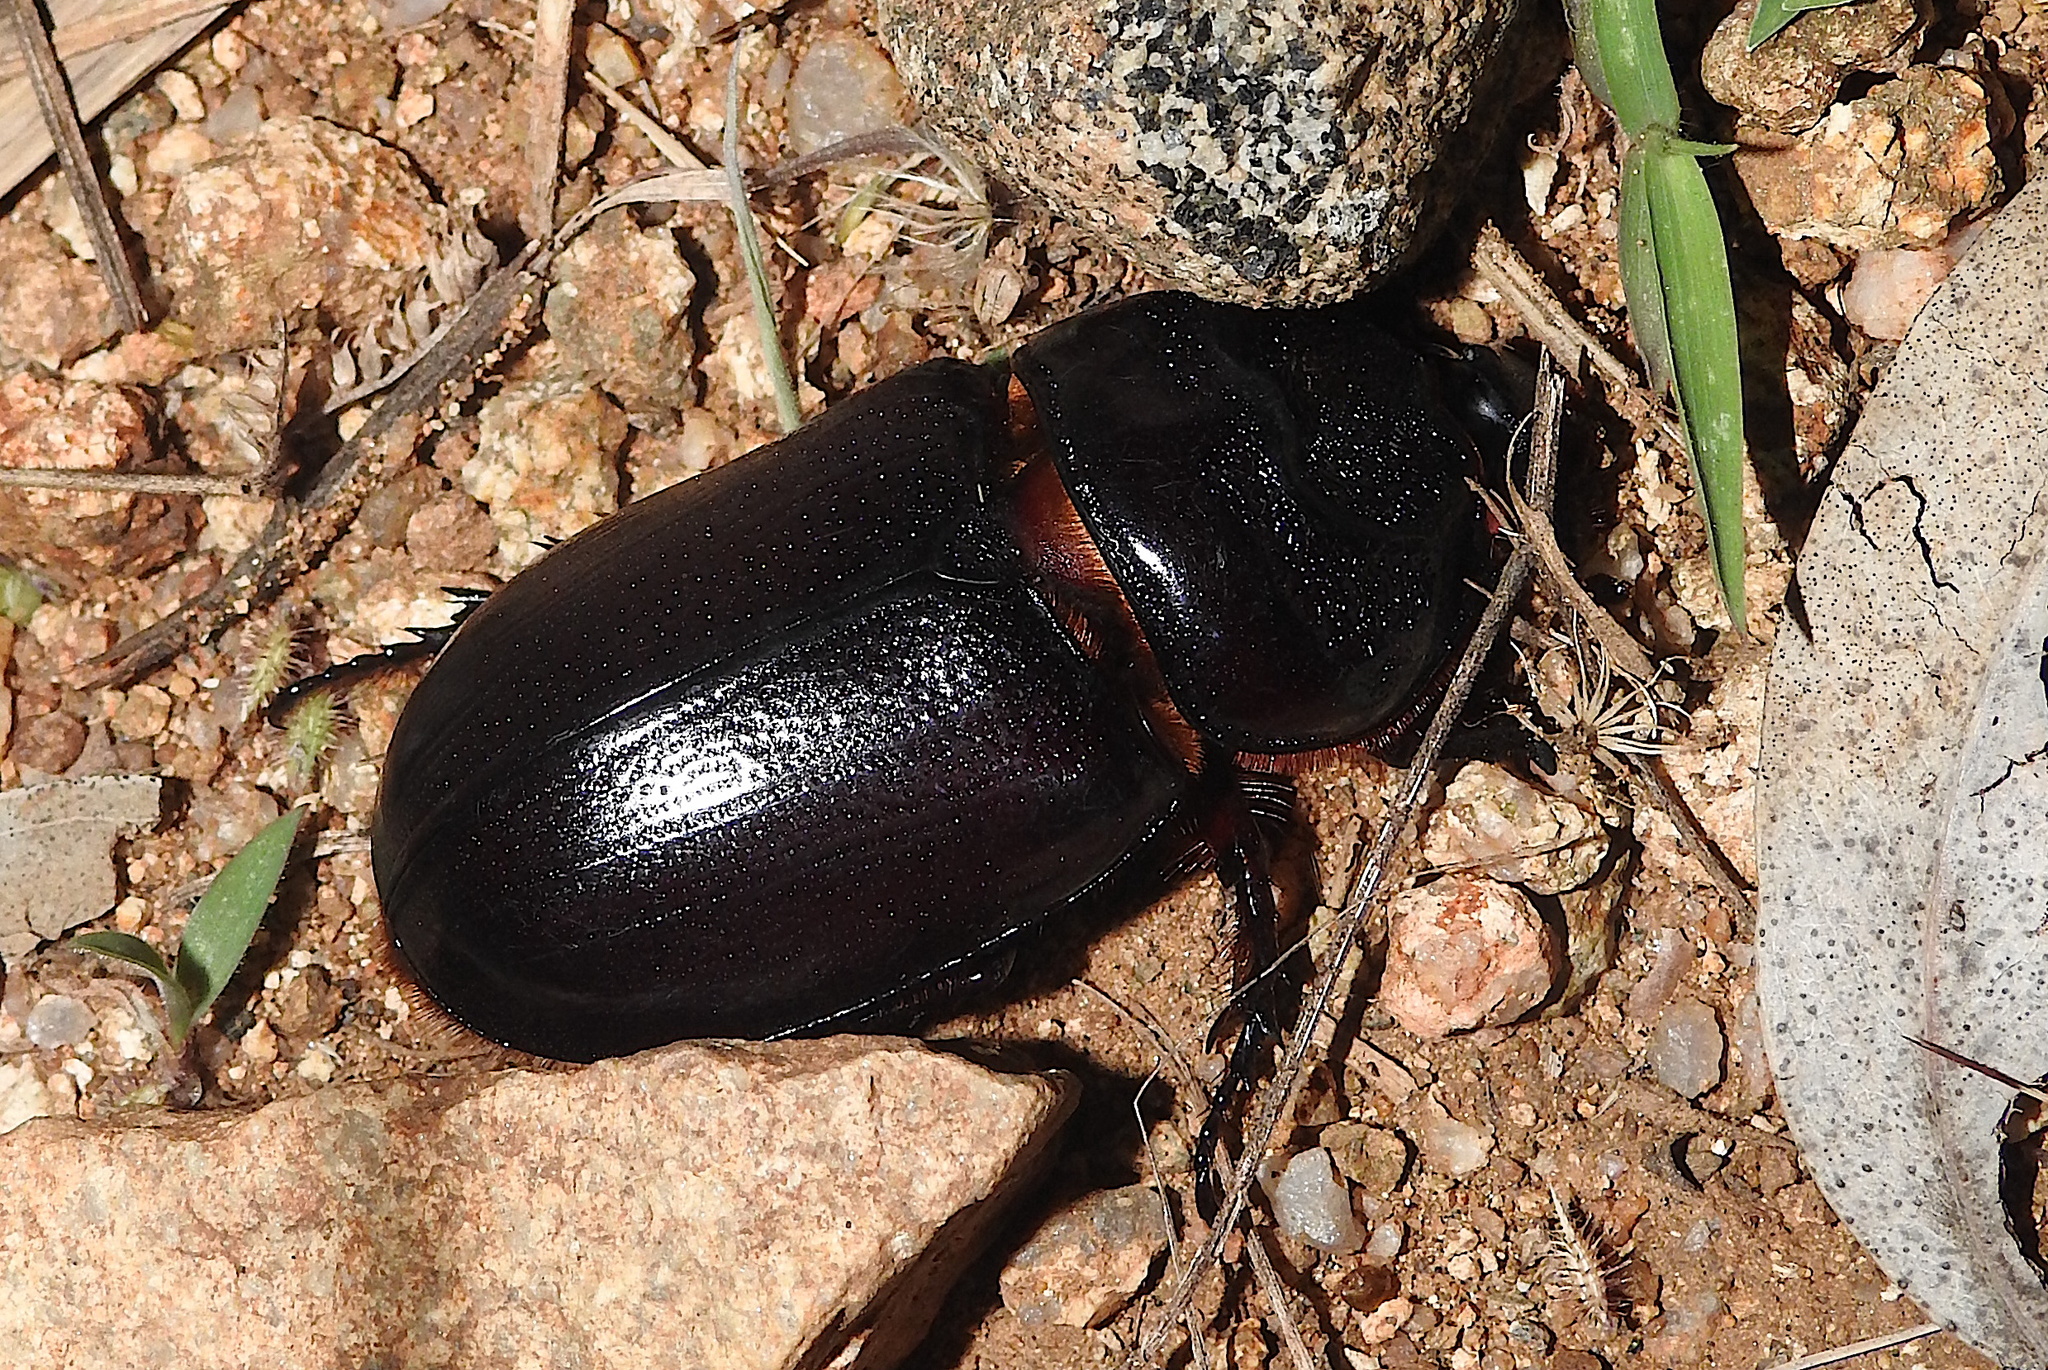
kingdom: Animalia
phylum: Arthropoda
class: Insecta
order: Coleoptera
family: Scarabaeidae
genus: Oryctes
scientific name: Oryctes rhinoceros
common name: Coconut rhinoceros beetle
